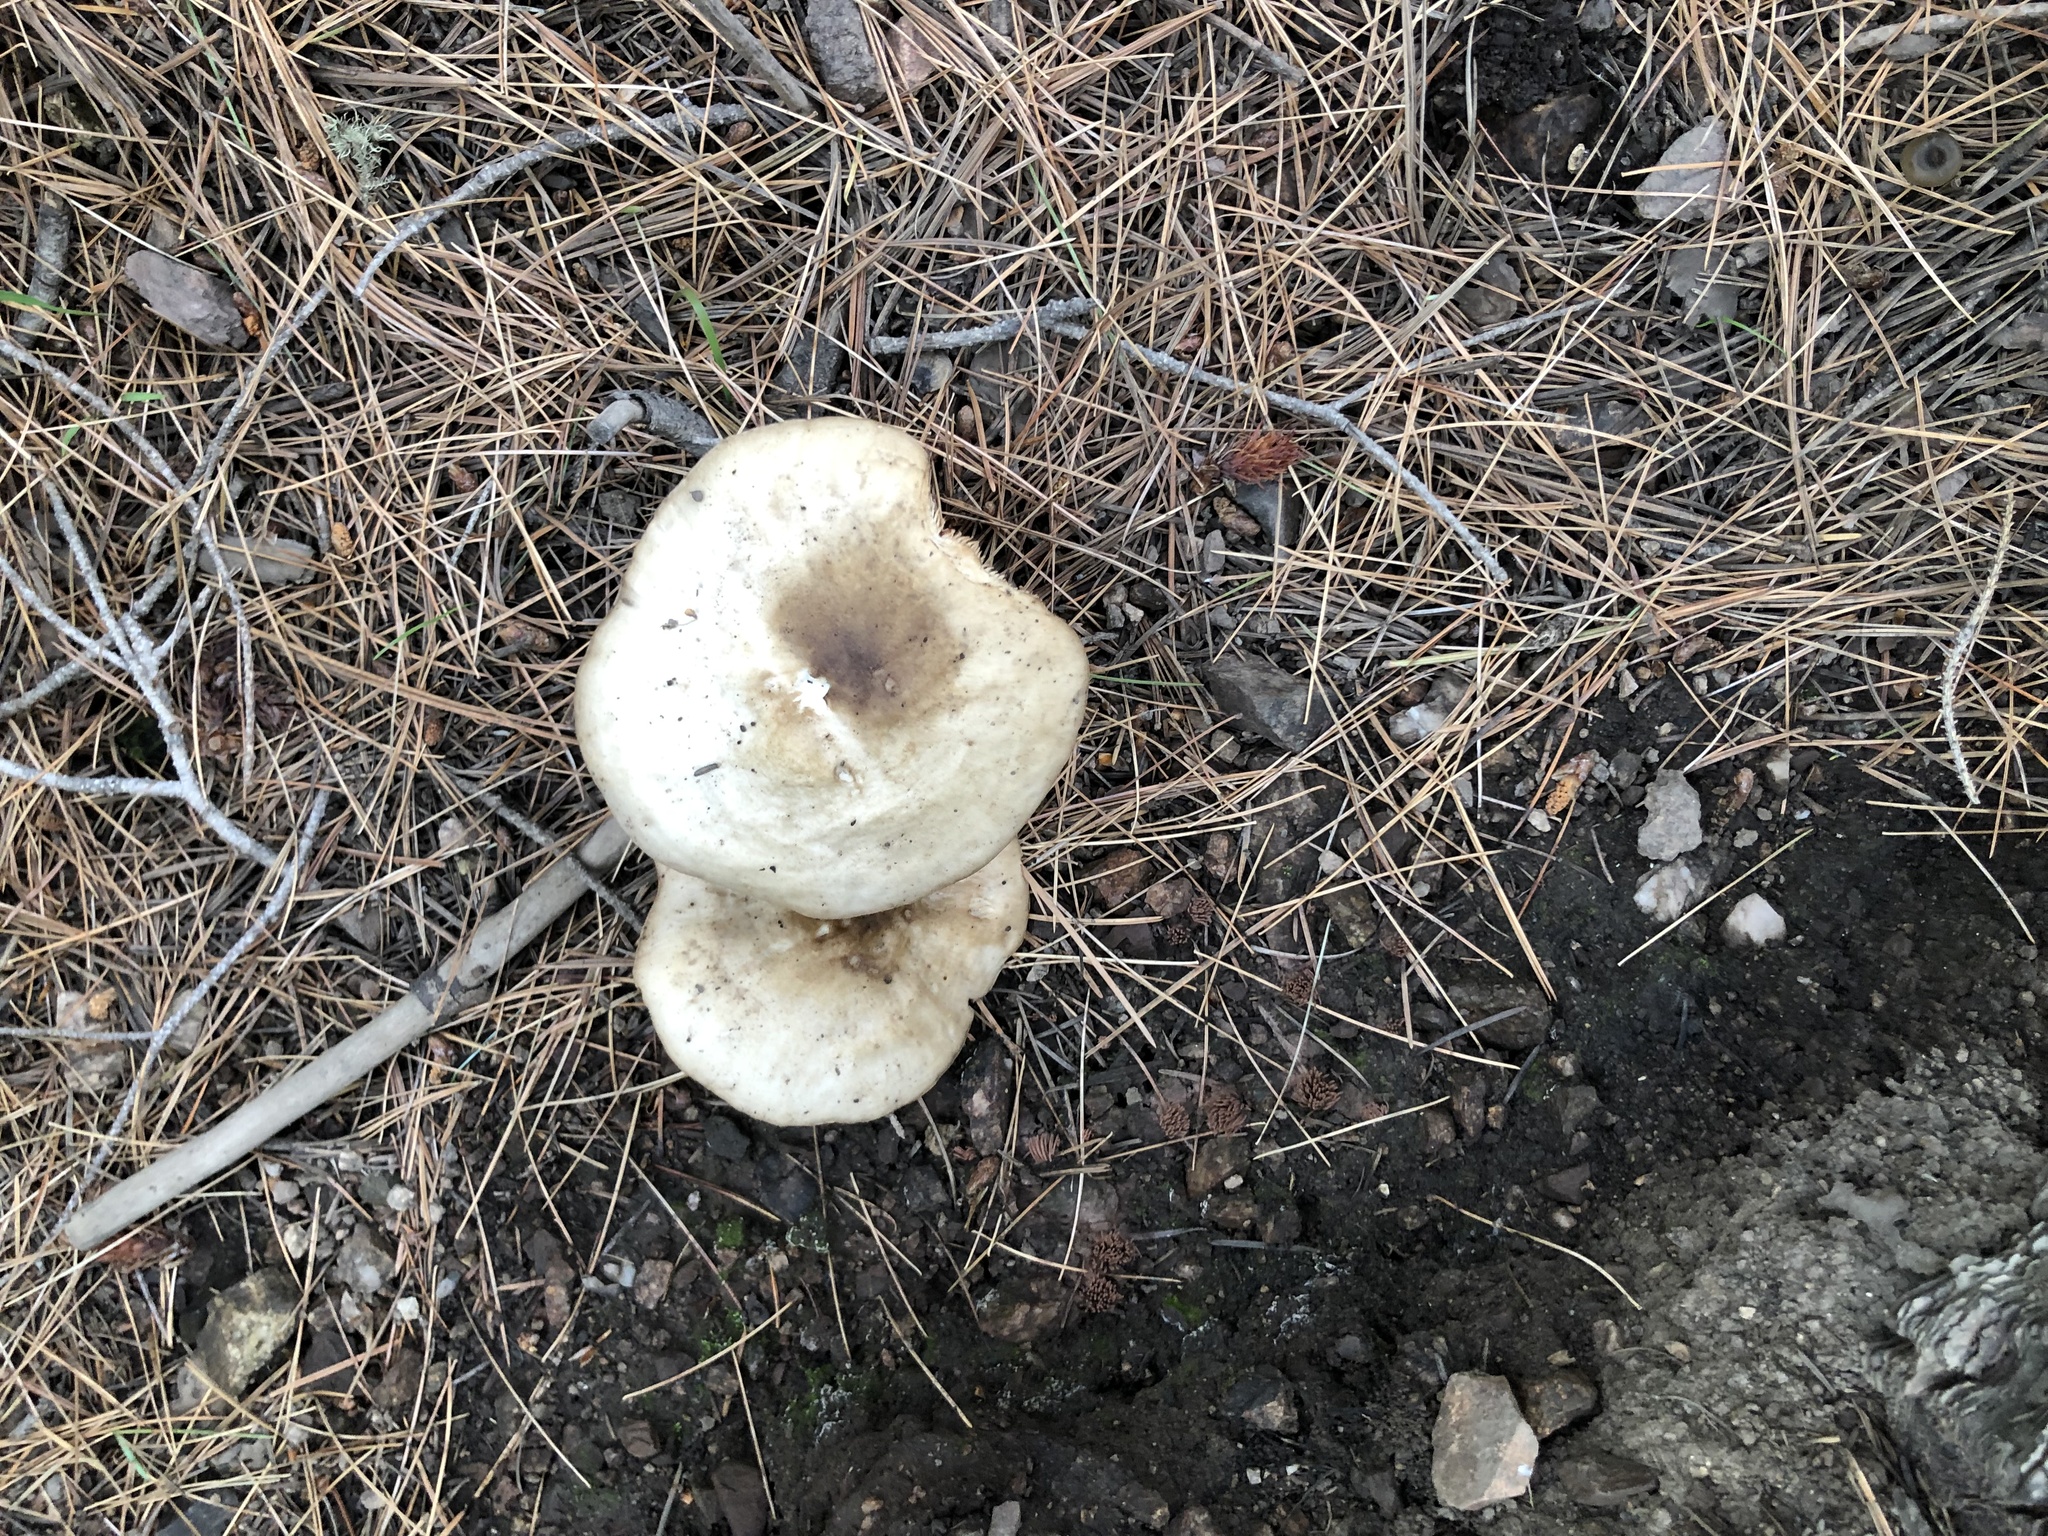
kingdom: Fungi
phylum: Basidiomycota
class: Agaricomycetes
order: Agaricales
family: Pluteaceae
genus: Pluteus
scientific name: Pluteus brunneidiscus
